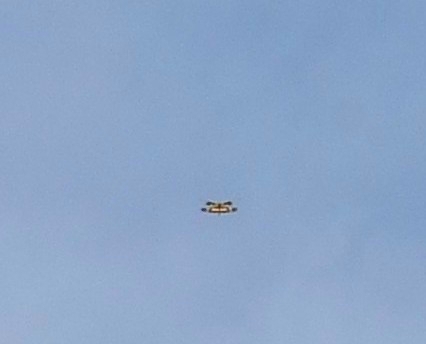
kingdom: Animalia
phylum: Arthropoda
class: Insecta
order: Odonata
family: Libellulidae
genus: Rhyothemis
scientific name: Rhyothemis variegata
